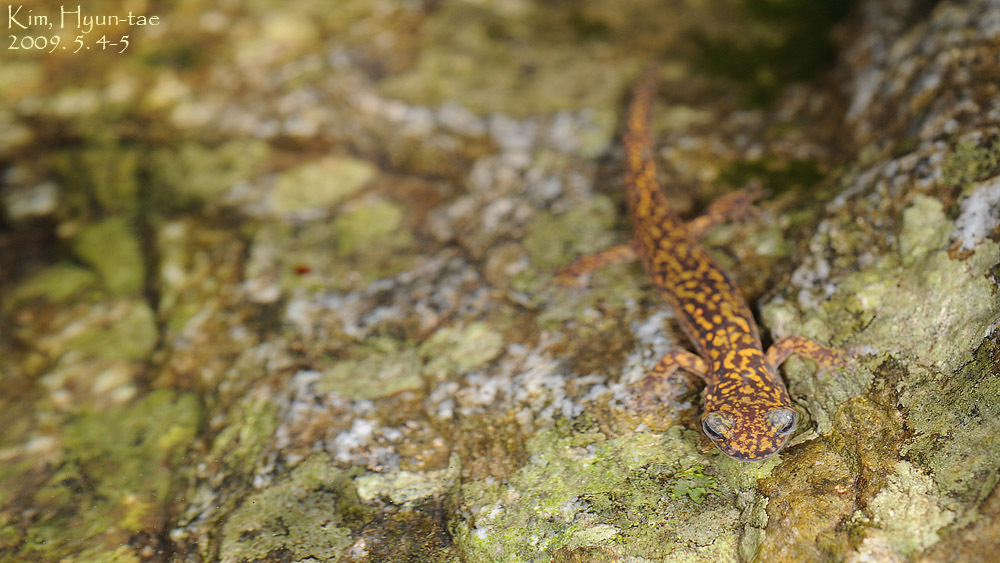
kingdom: Animalia
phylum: Chordata
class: Amphibia
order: Caudata
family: Hynobiidae
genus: Onychodactylus
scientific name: Onychodactylus koreanus
